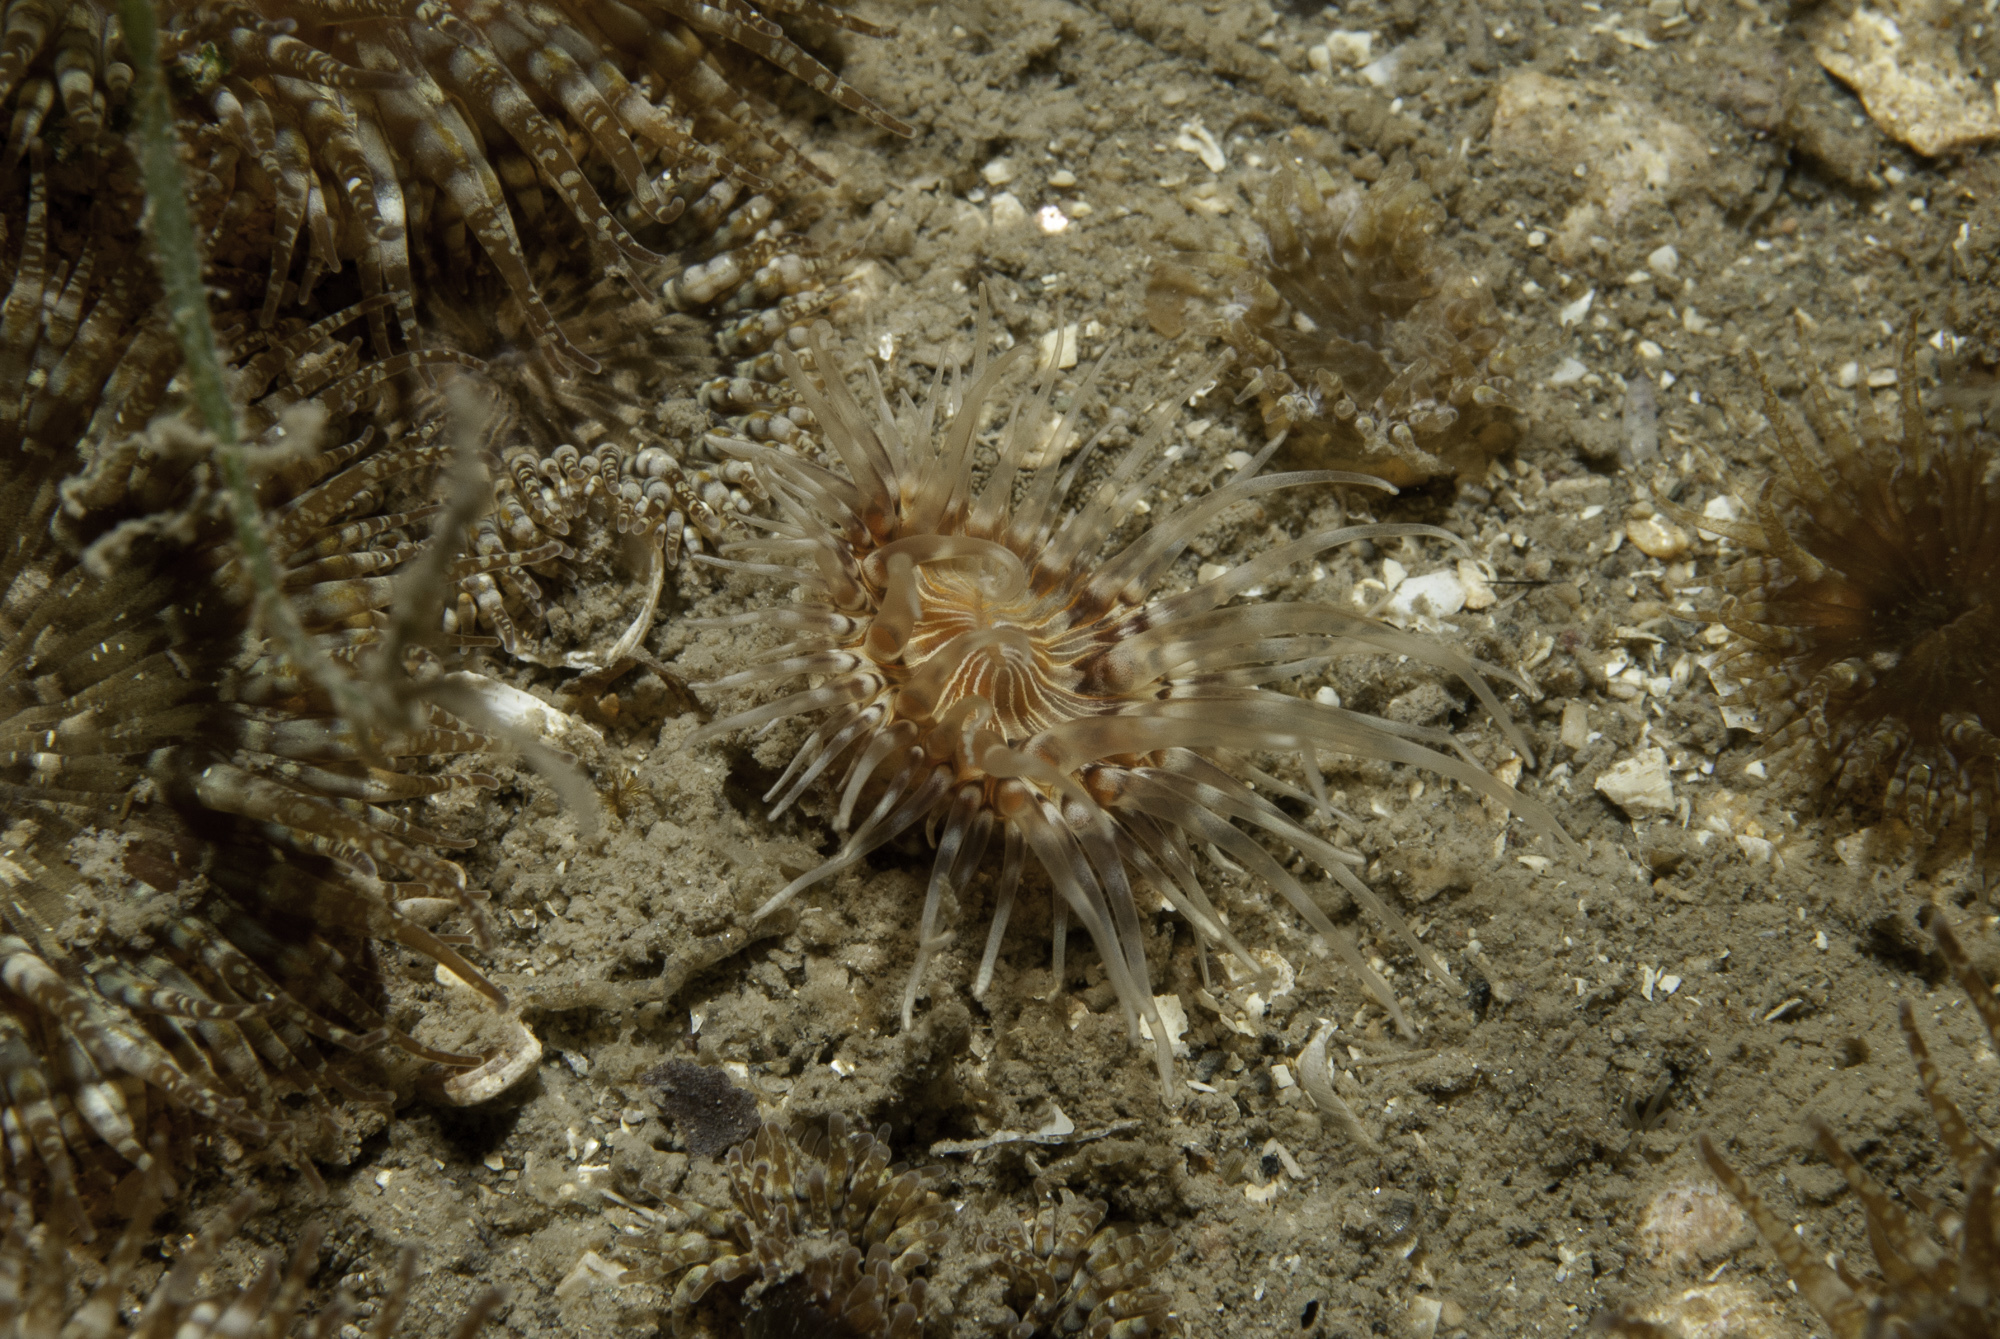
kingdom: Animalia
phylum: Cnidaria
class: Anthozoa
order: Actiniaria
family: Sagartiidae
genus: Sagartia
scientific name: Sagartia lacerata
